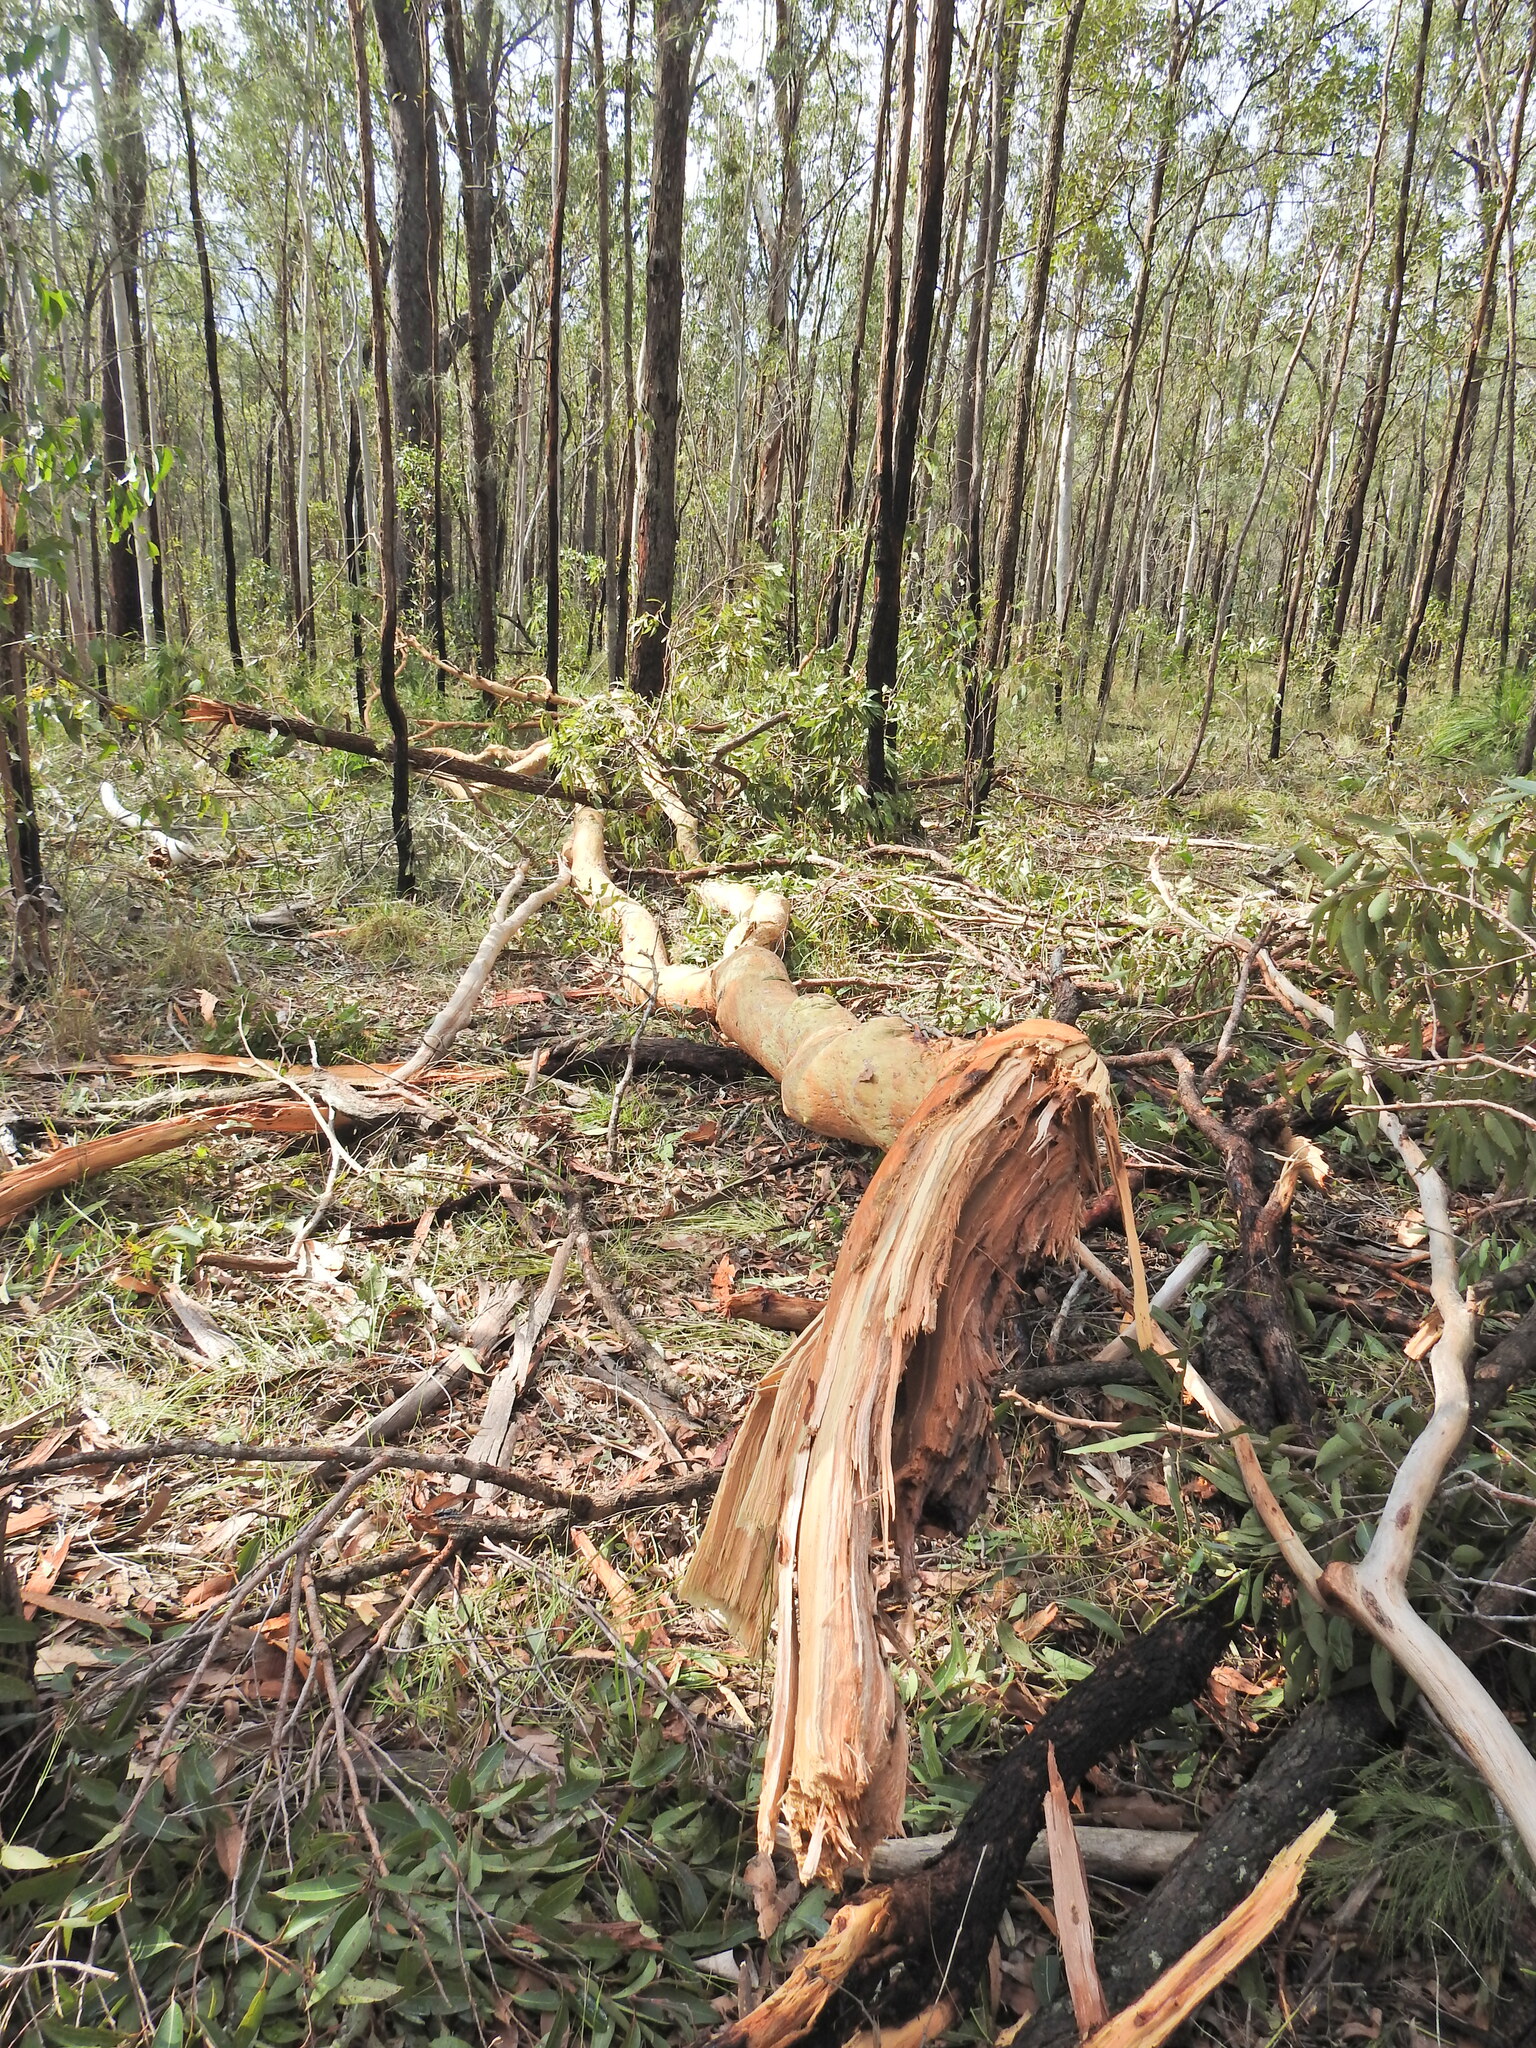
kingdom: Plantae
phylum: Tracheophyta
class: Magnoliopsida
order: Myrtales
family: Myrtaceae
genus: Angophora
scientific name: Angophora leiocarpa
